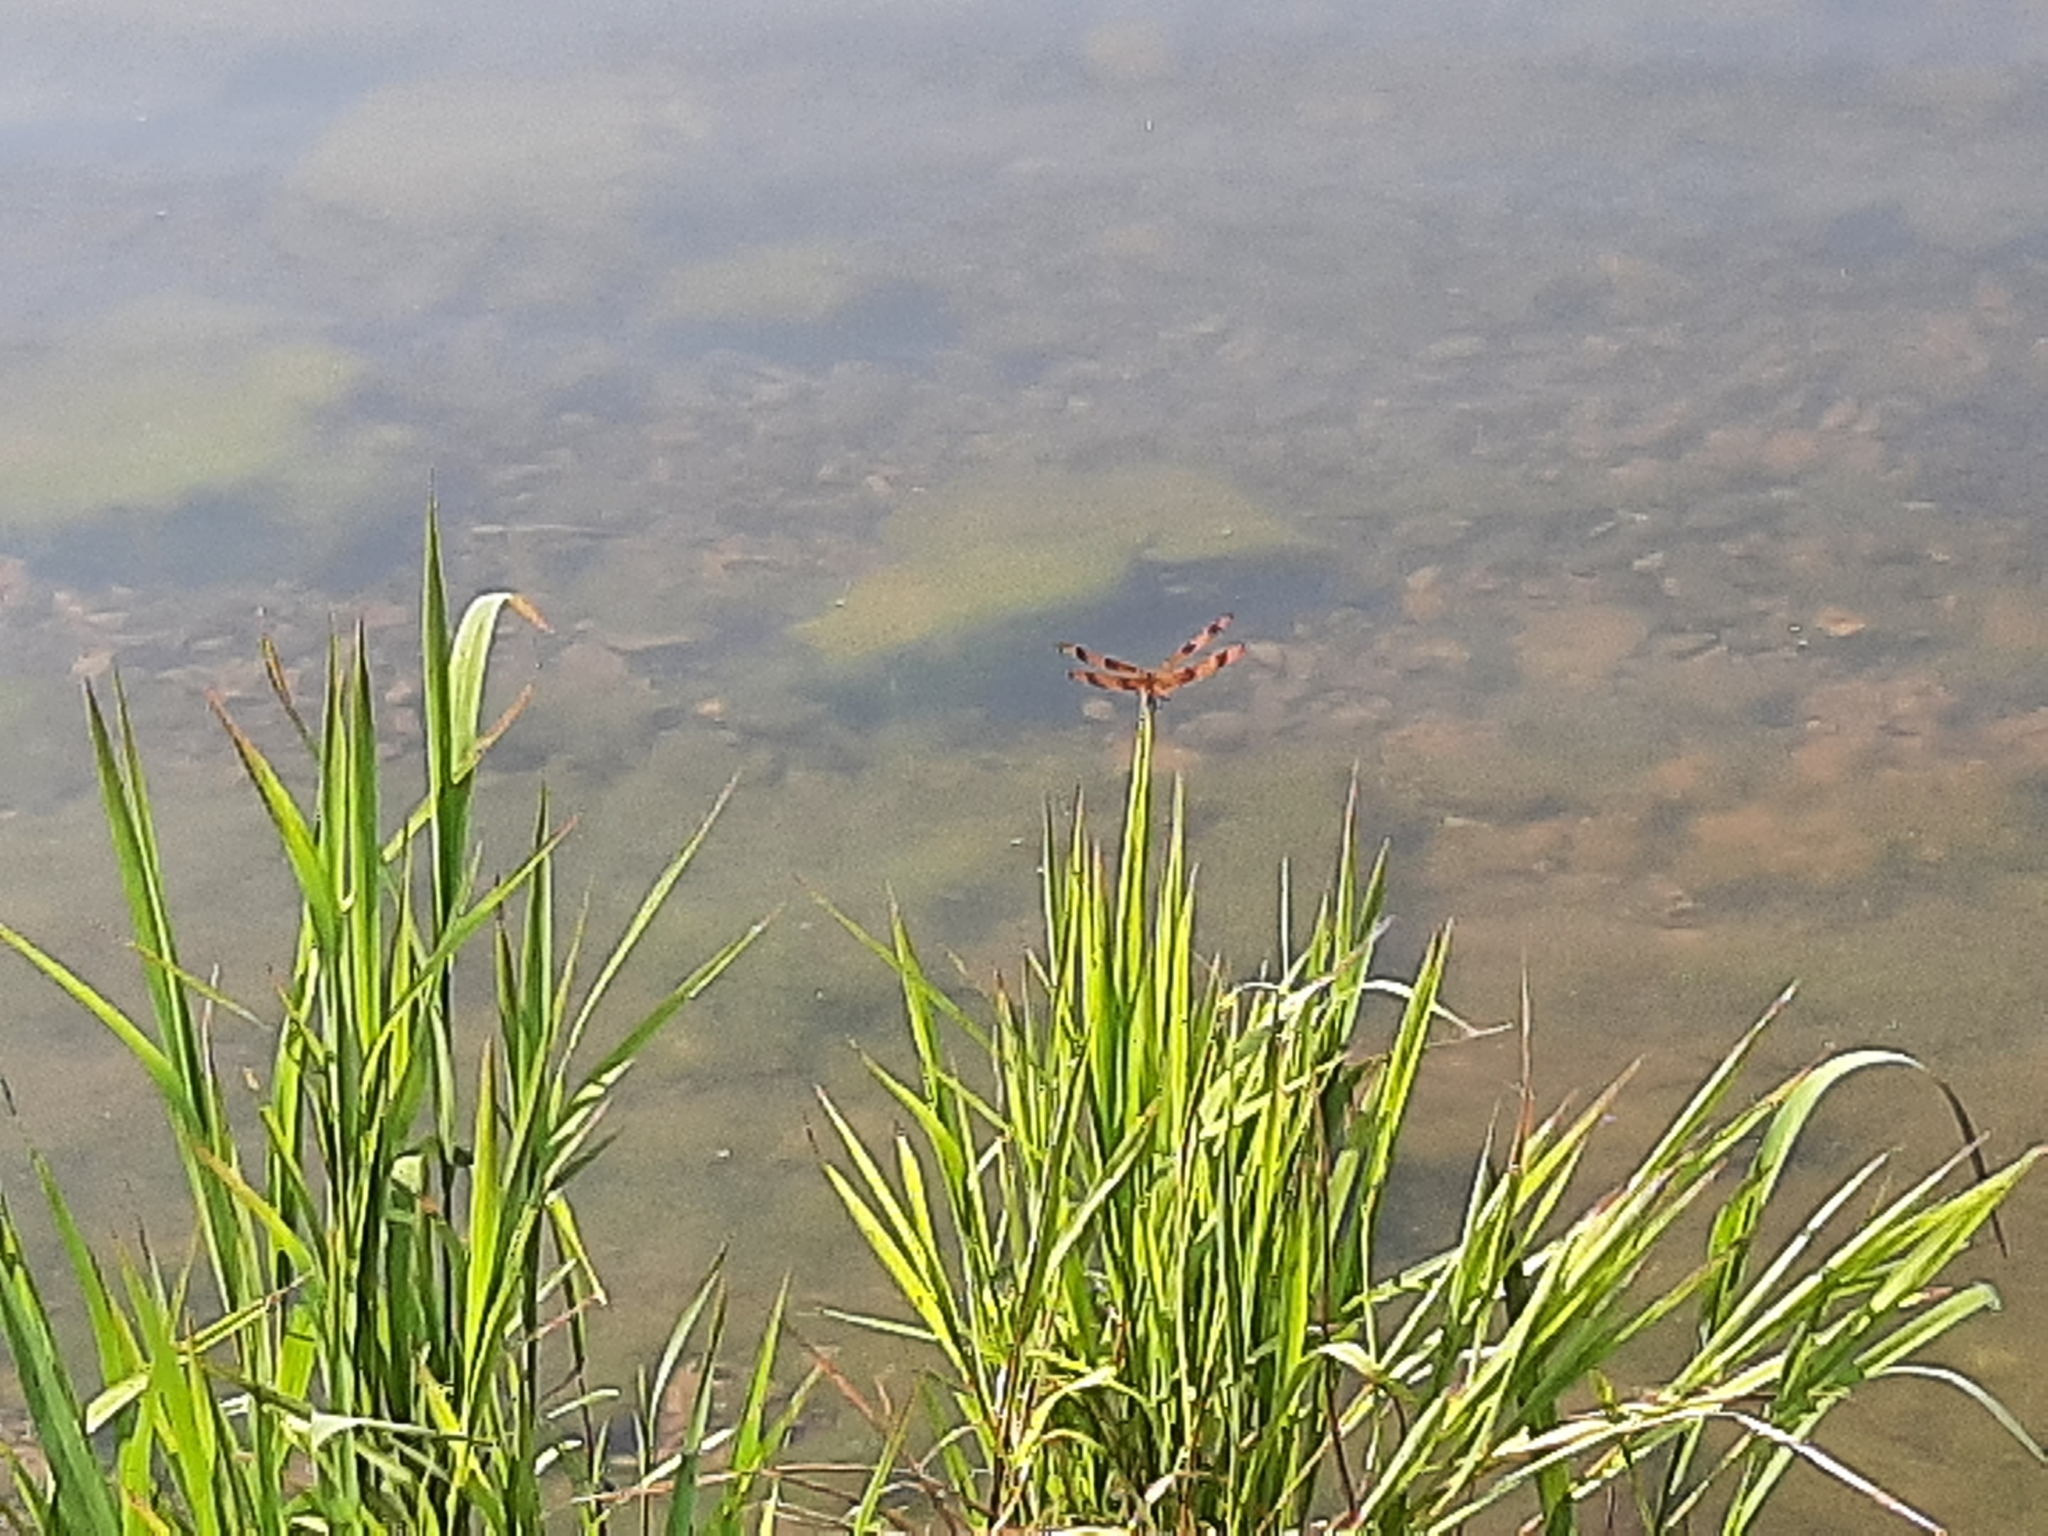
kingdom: Animalia
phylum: Arthropoda
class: Insecta
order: Odonata
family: Libellulidae
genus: Celithemis
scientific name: Celithemis eponina
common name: Halloween pennant
